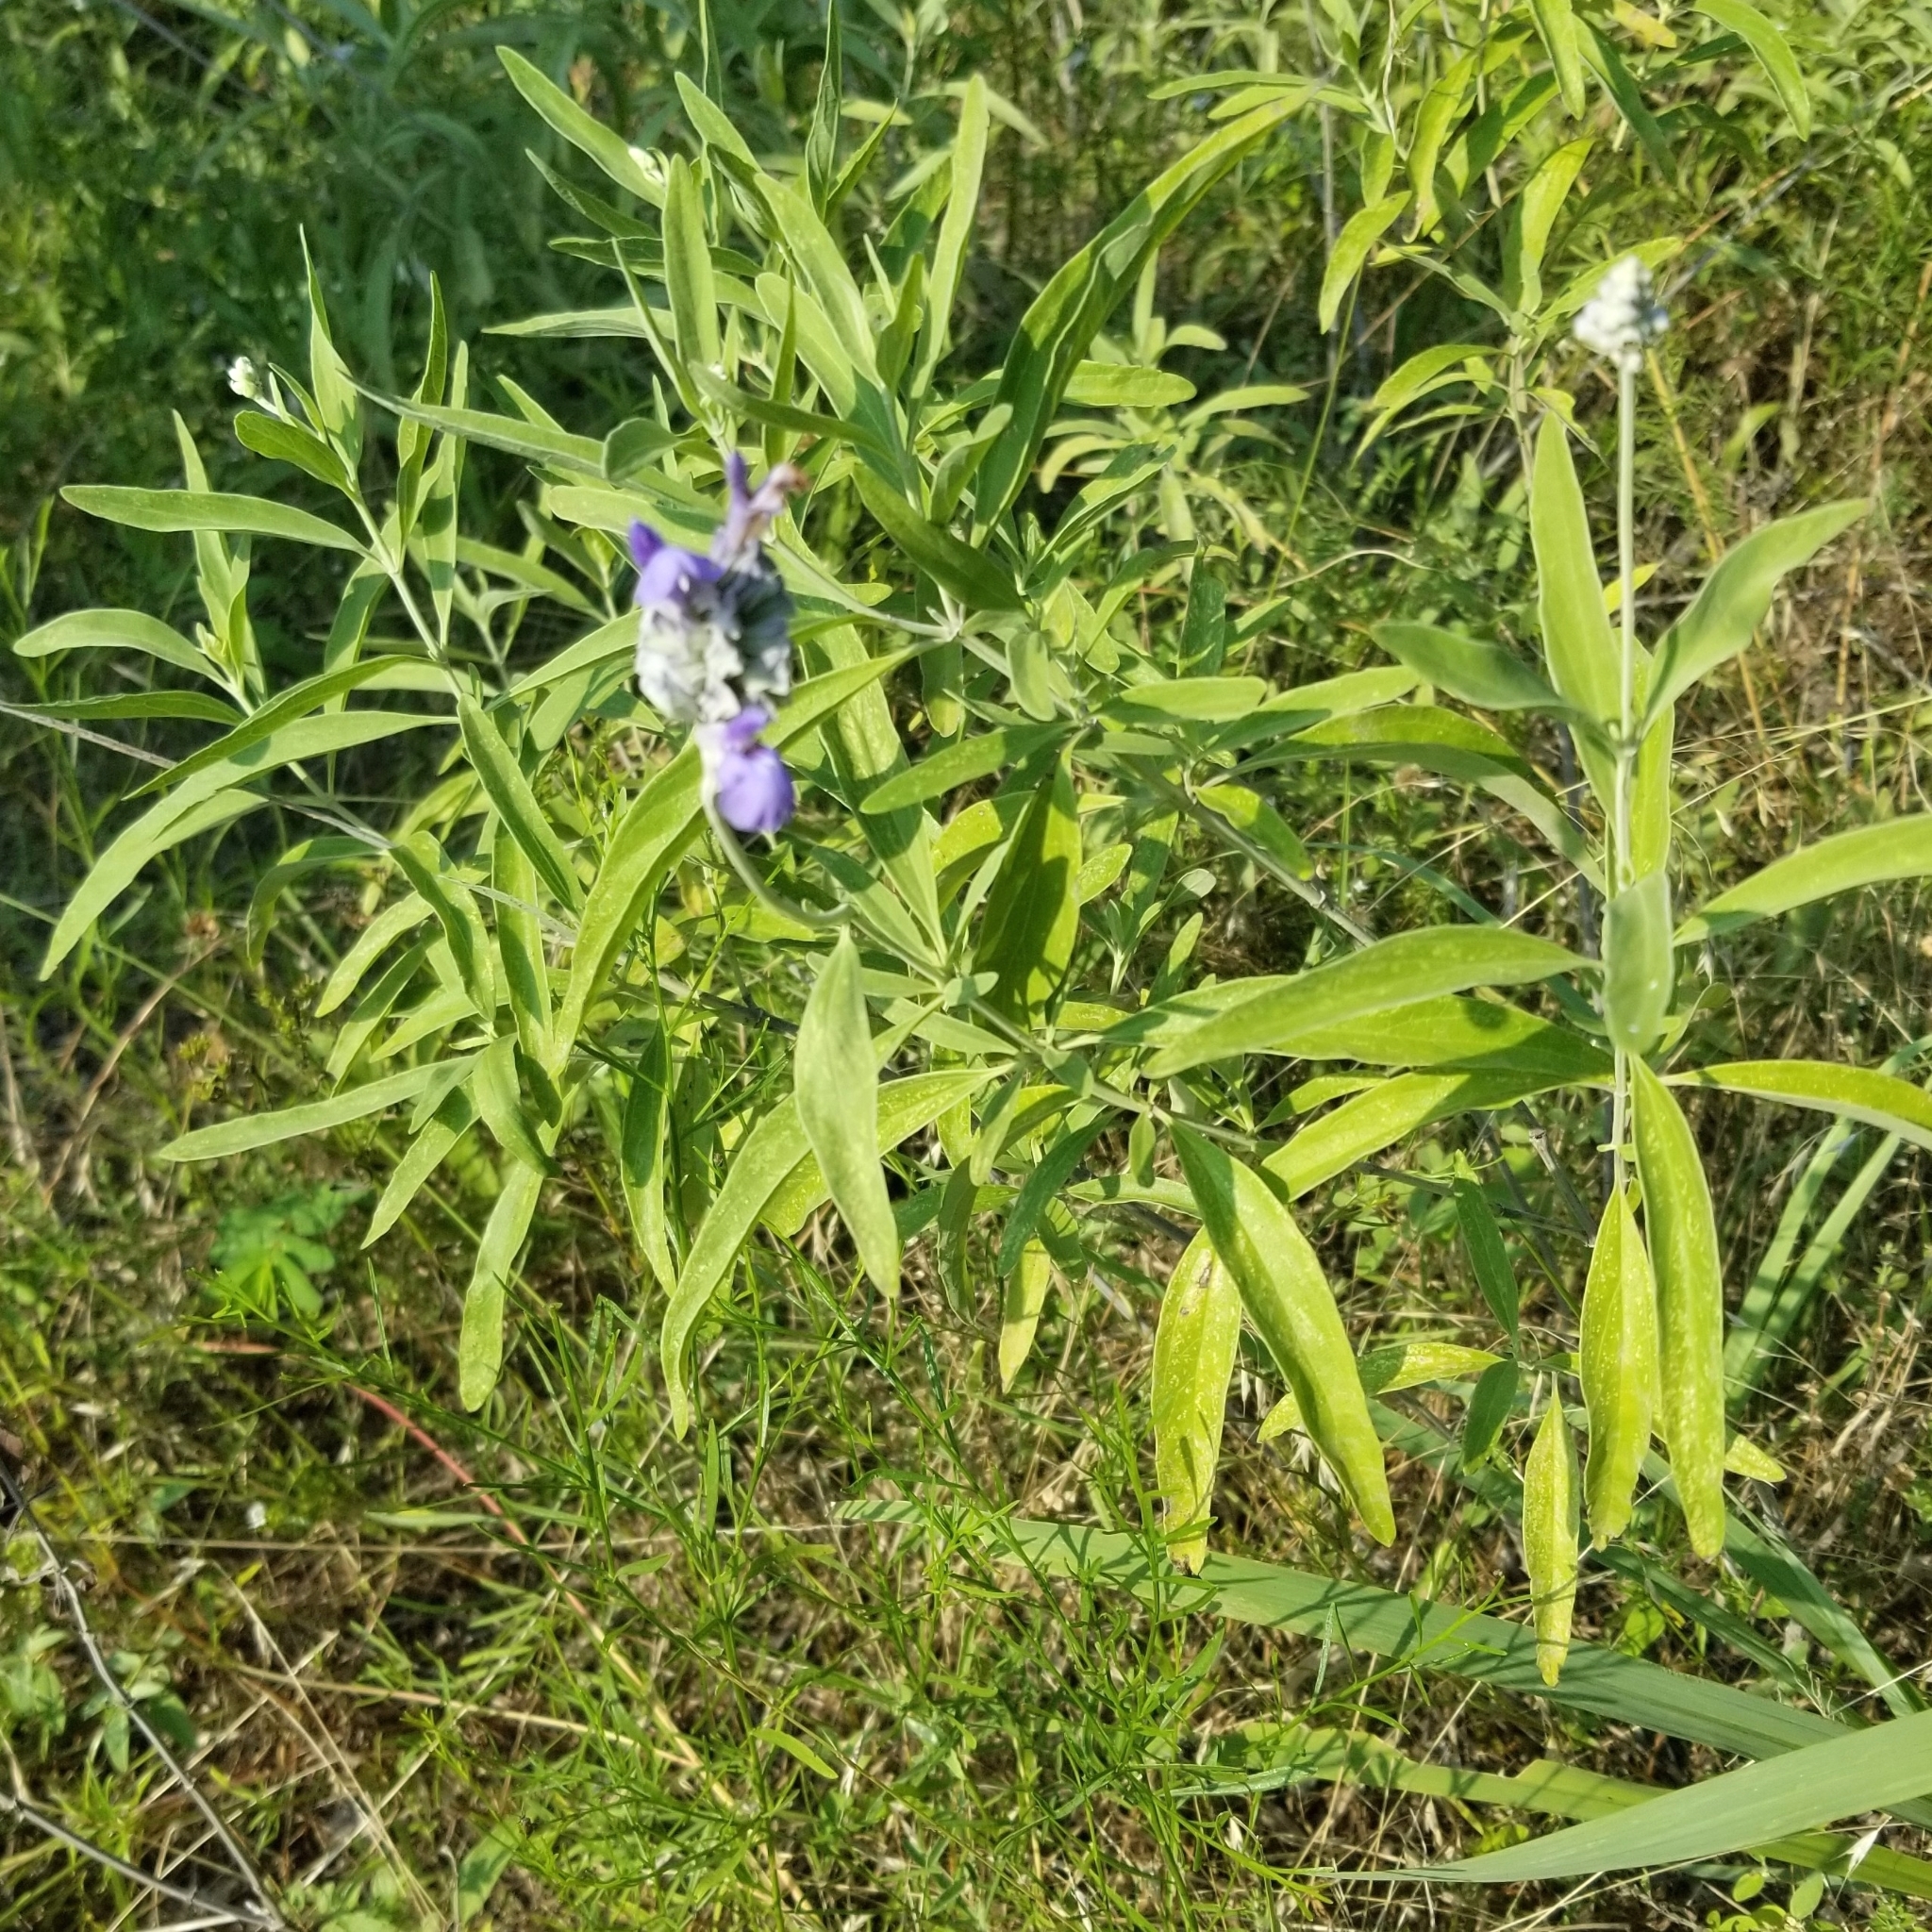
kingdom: Plantae
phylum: Tracheophyta
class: Magnoliopsida
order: Lamiales
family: Lamiaceae
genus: Salvia
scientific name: Salvia farinacea
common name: Mealy sage
